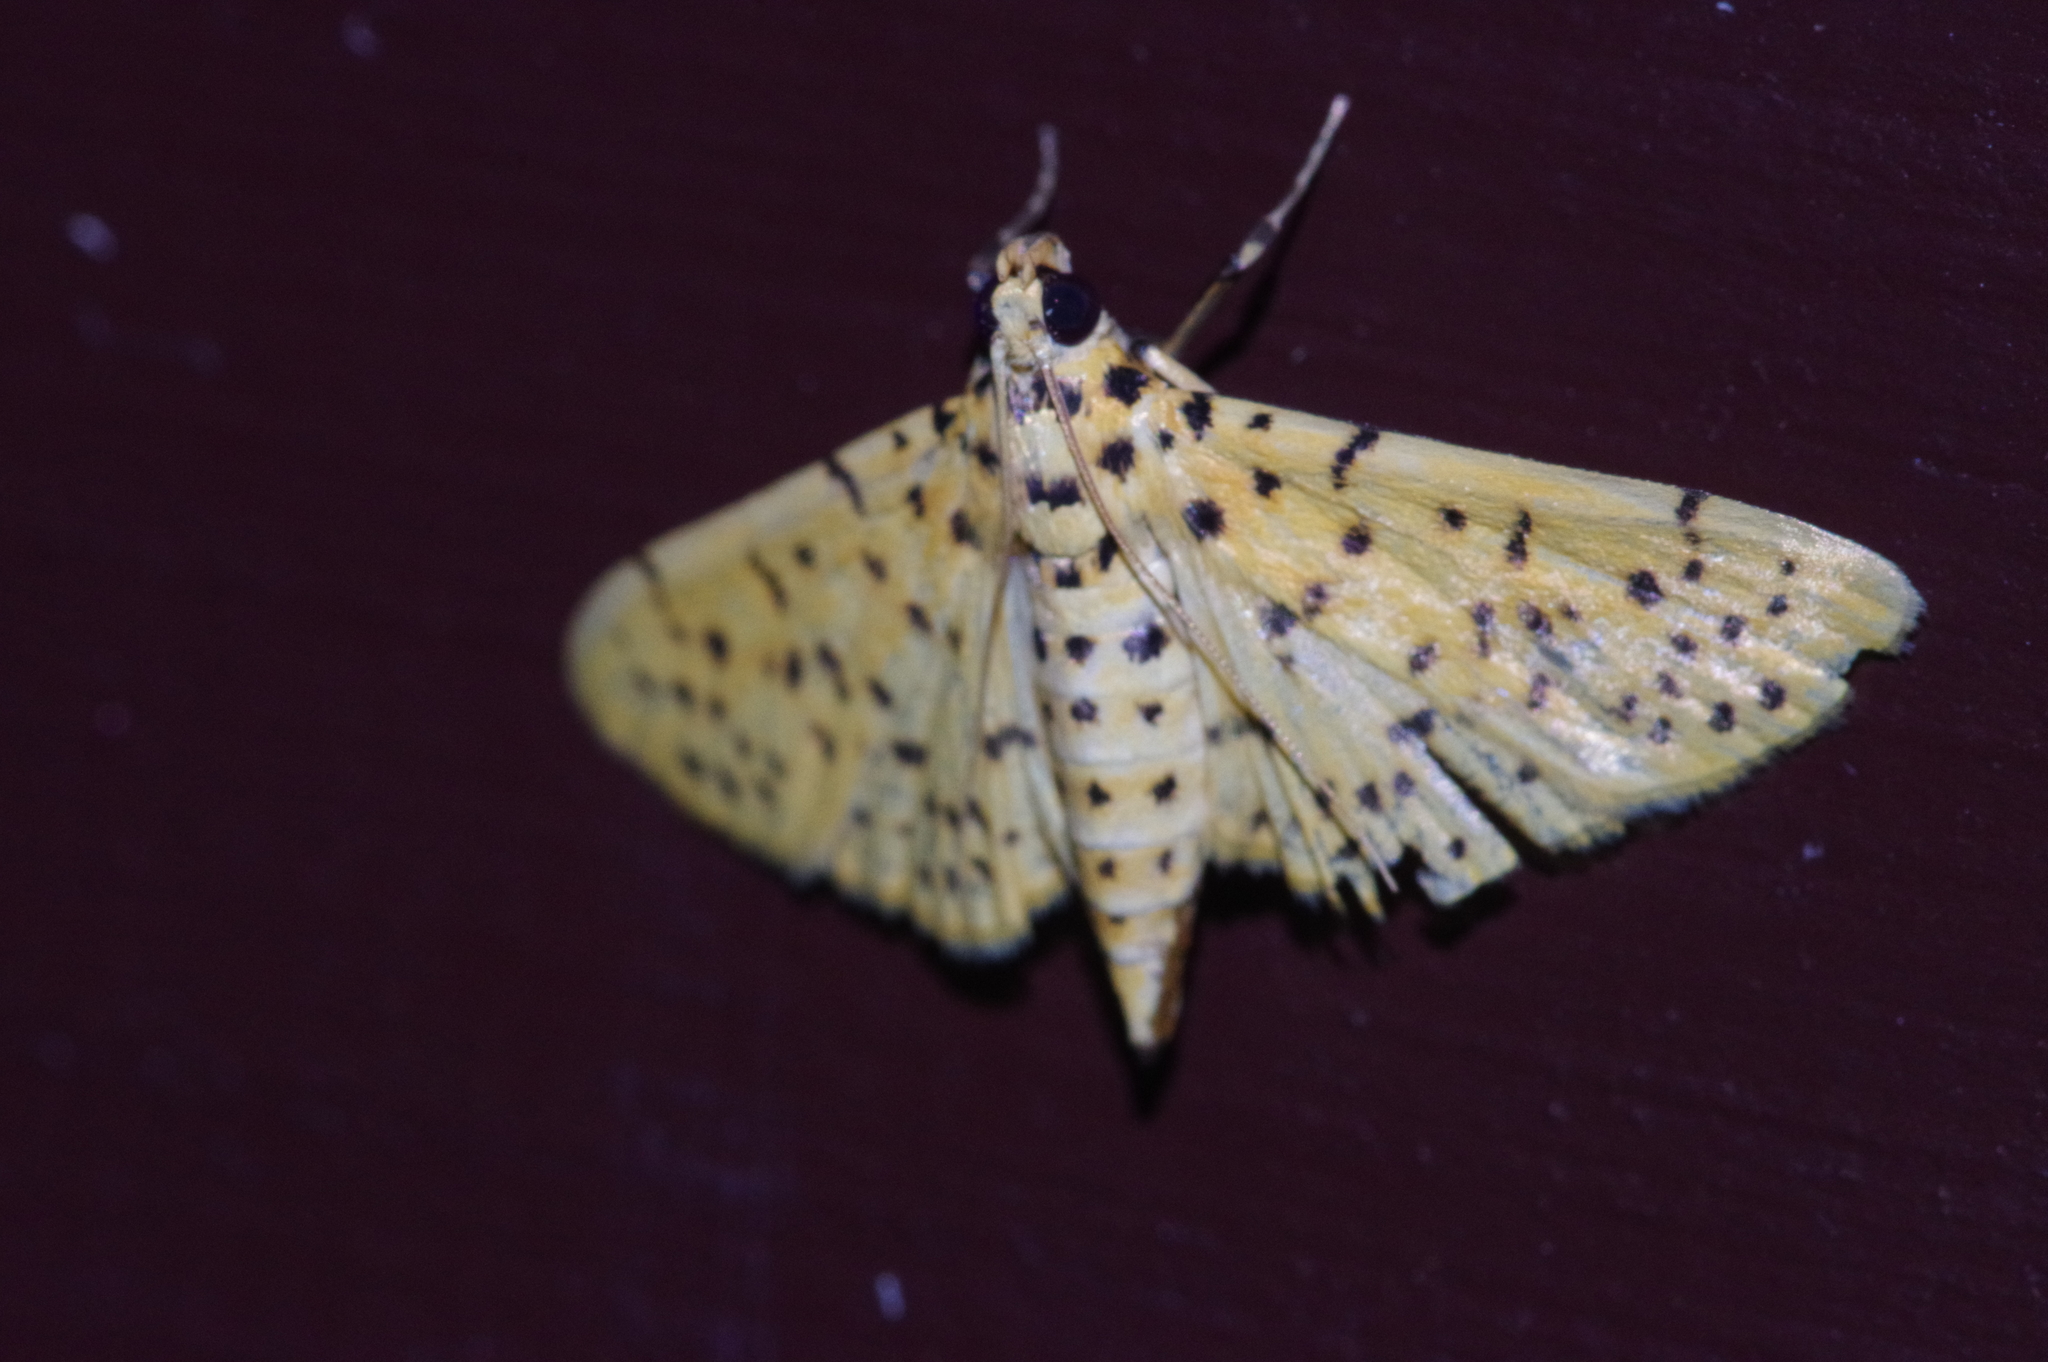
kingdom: Animalia
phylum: Arthropoda
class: Insecta
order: Lepidoptera
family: Crambidae
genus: Conogethes
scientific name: Conogethes punctiferalis
